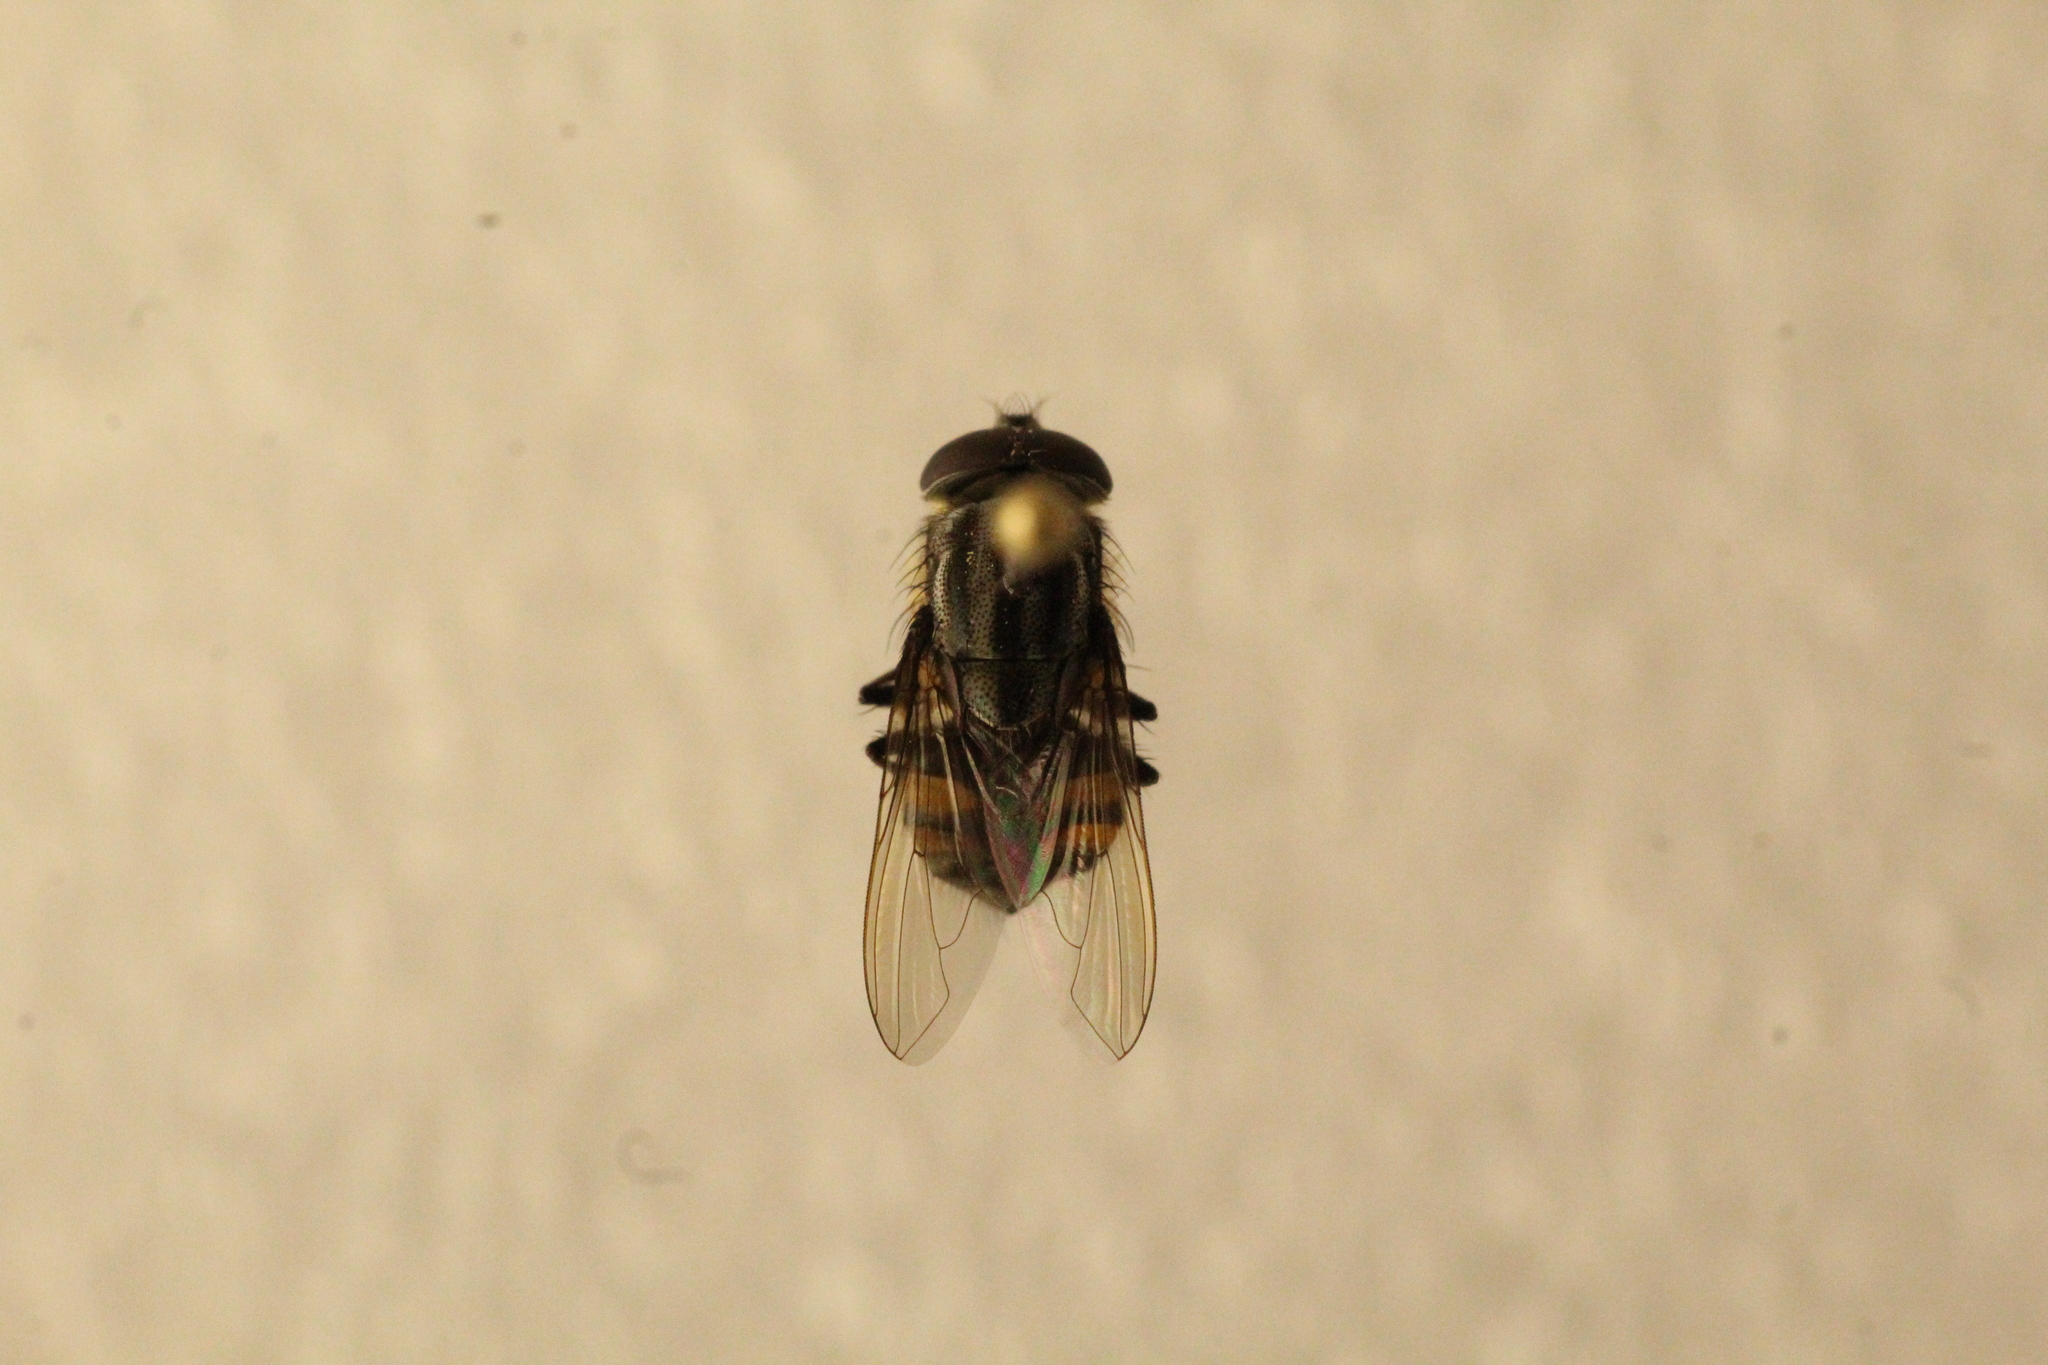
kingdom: Animalia
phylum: Arthropoda
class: Insecta
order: Diptera
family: Calliphoridae
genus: Stomorhina
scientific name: Stomorhina lunata
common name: Locust blowfly
